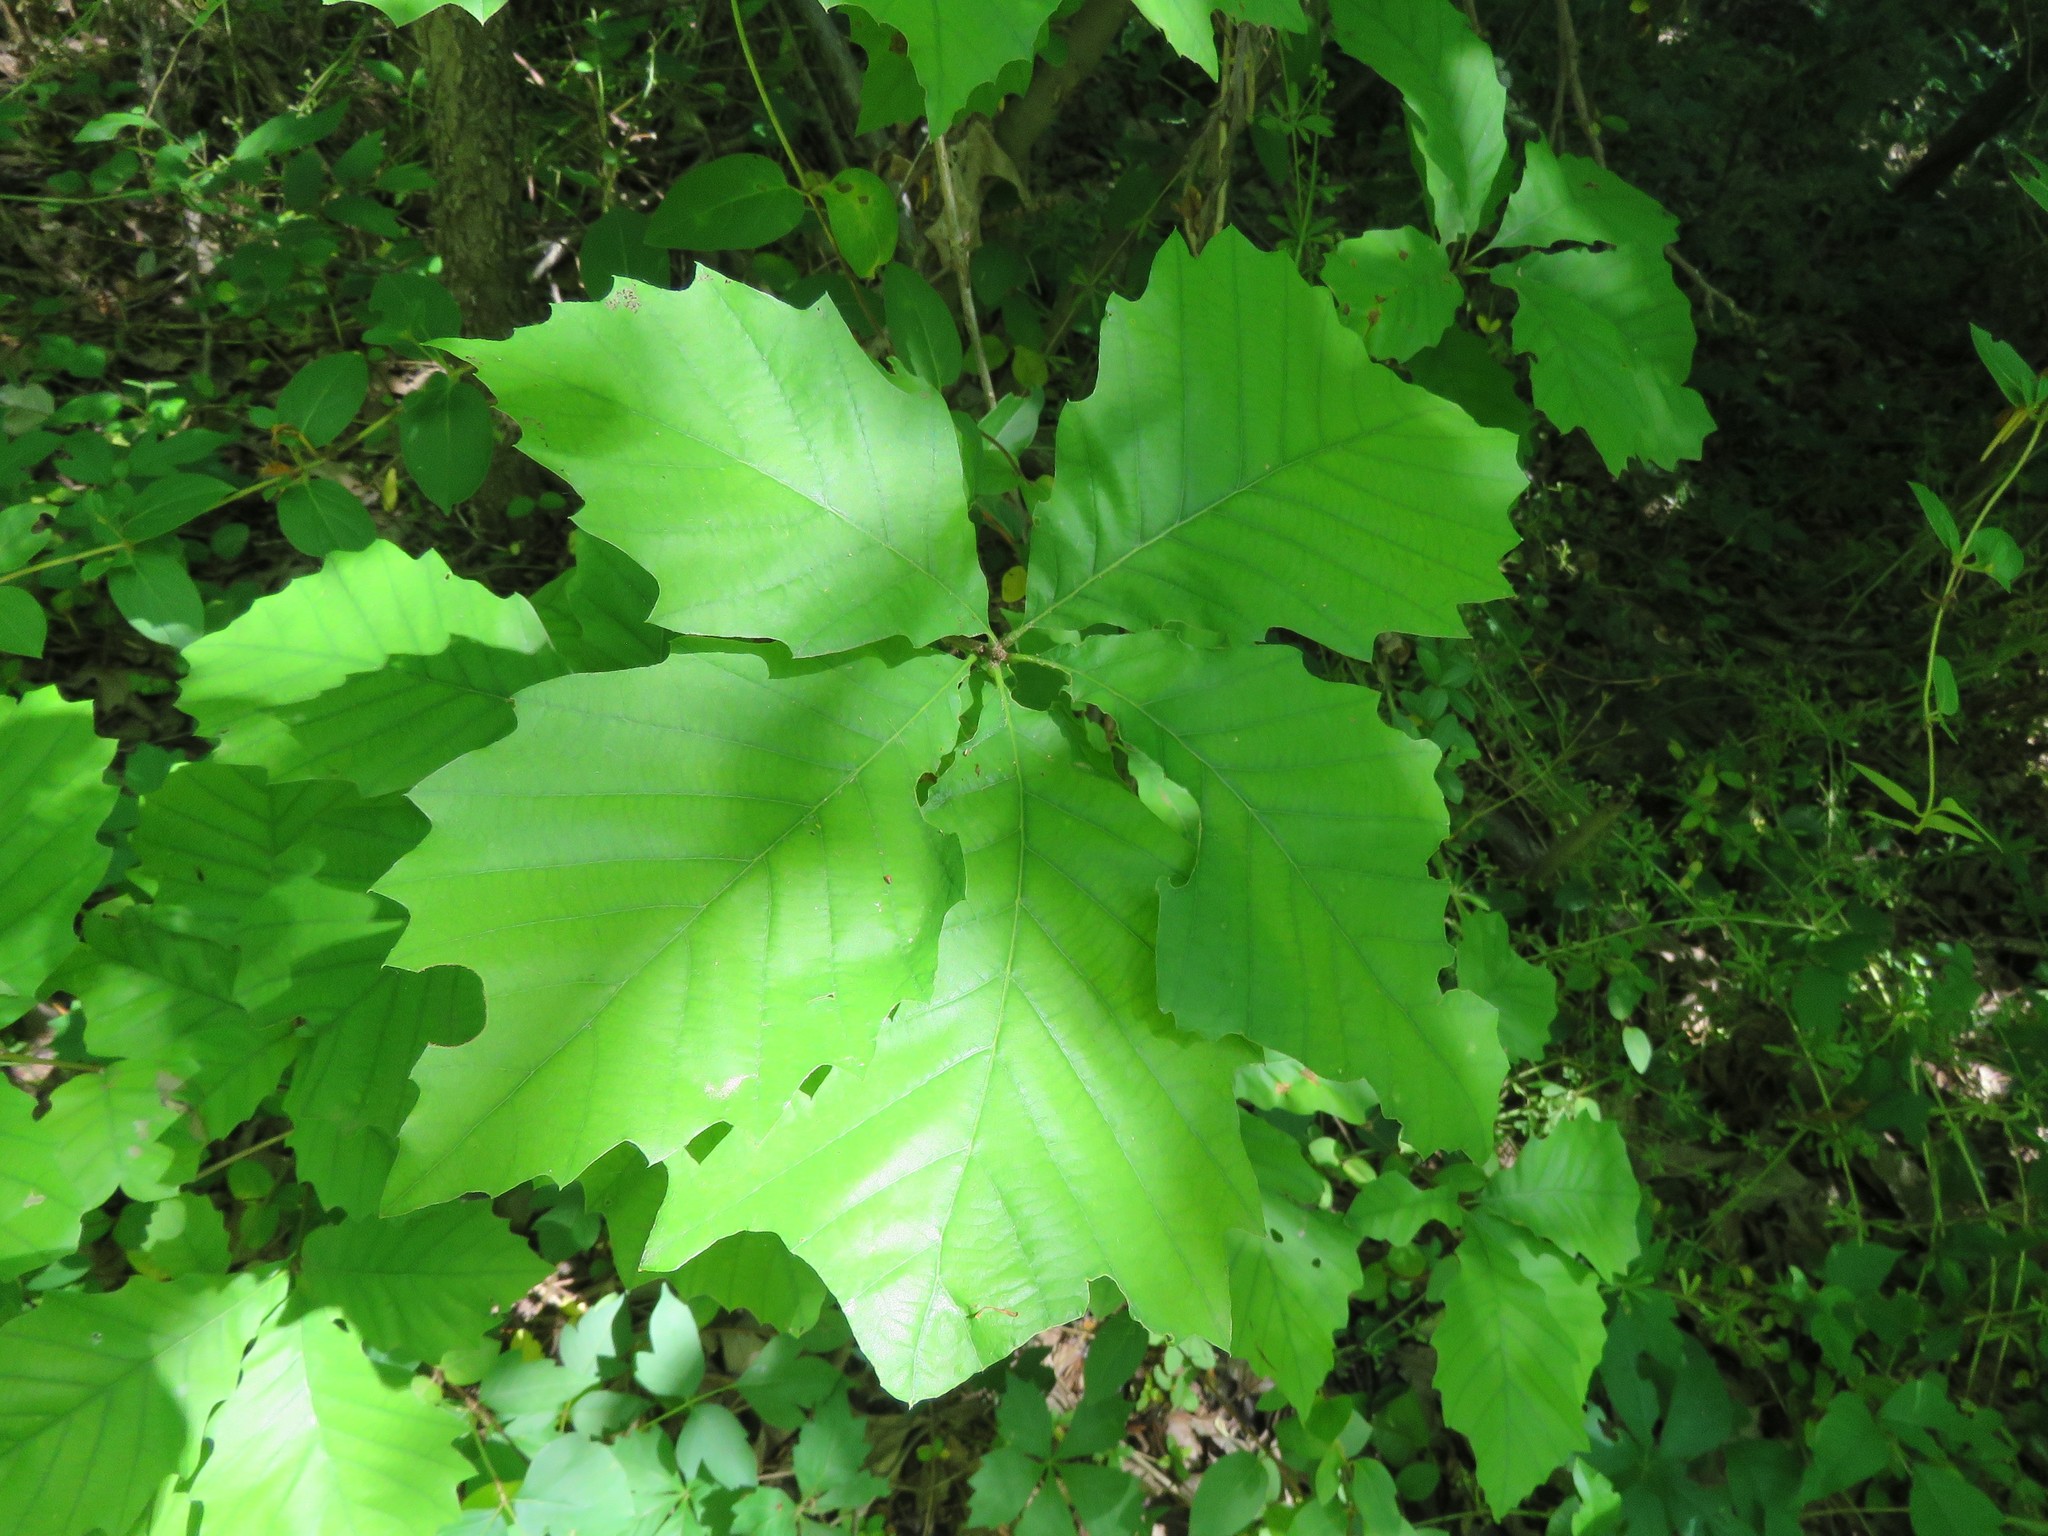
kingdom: Plantae
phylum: Tracheophyta
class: Magnoliopsida
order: Fagales
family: Fagaceae
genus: Quercus
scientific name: Quercus muehlenbergii
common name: Chinkapin oak
